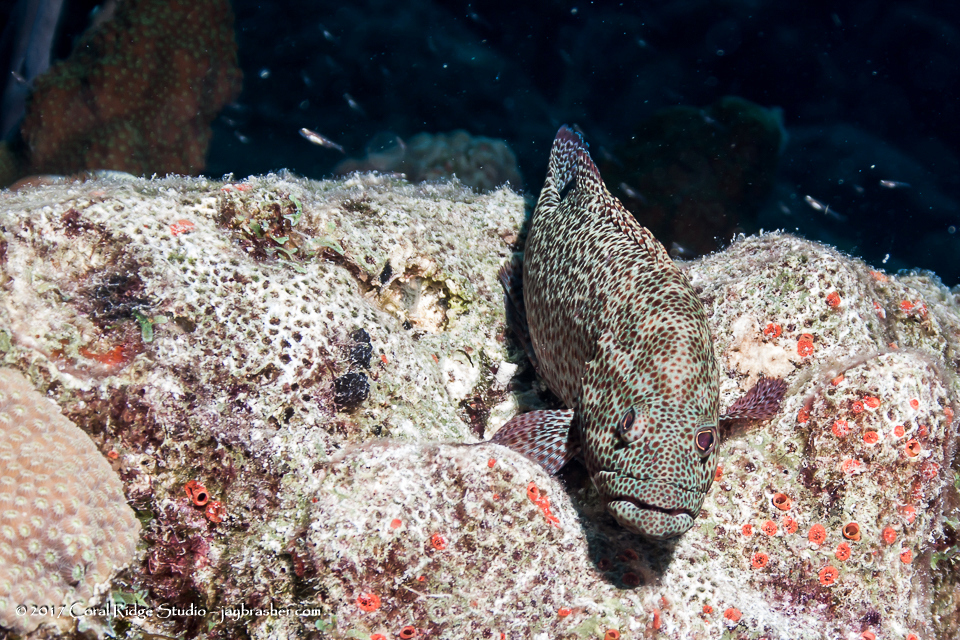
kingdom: Animalia
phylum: Chordata
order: Perciformes
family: Serranidae
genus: Cephalopholis
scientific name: Cephalopholis cruentata
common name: Graysby
